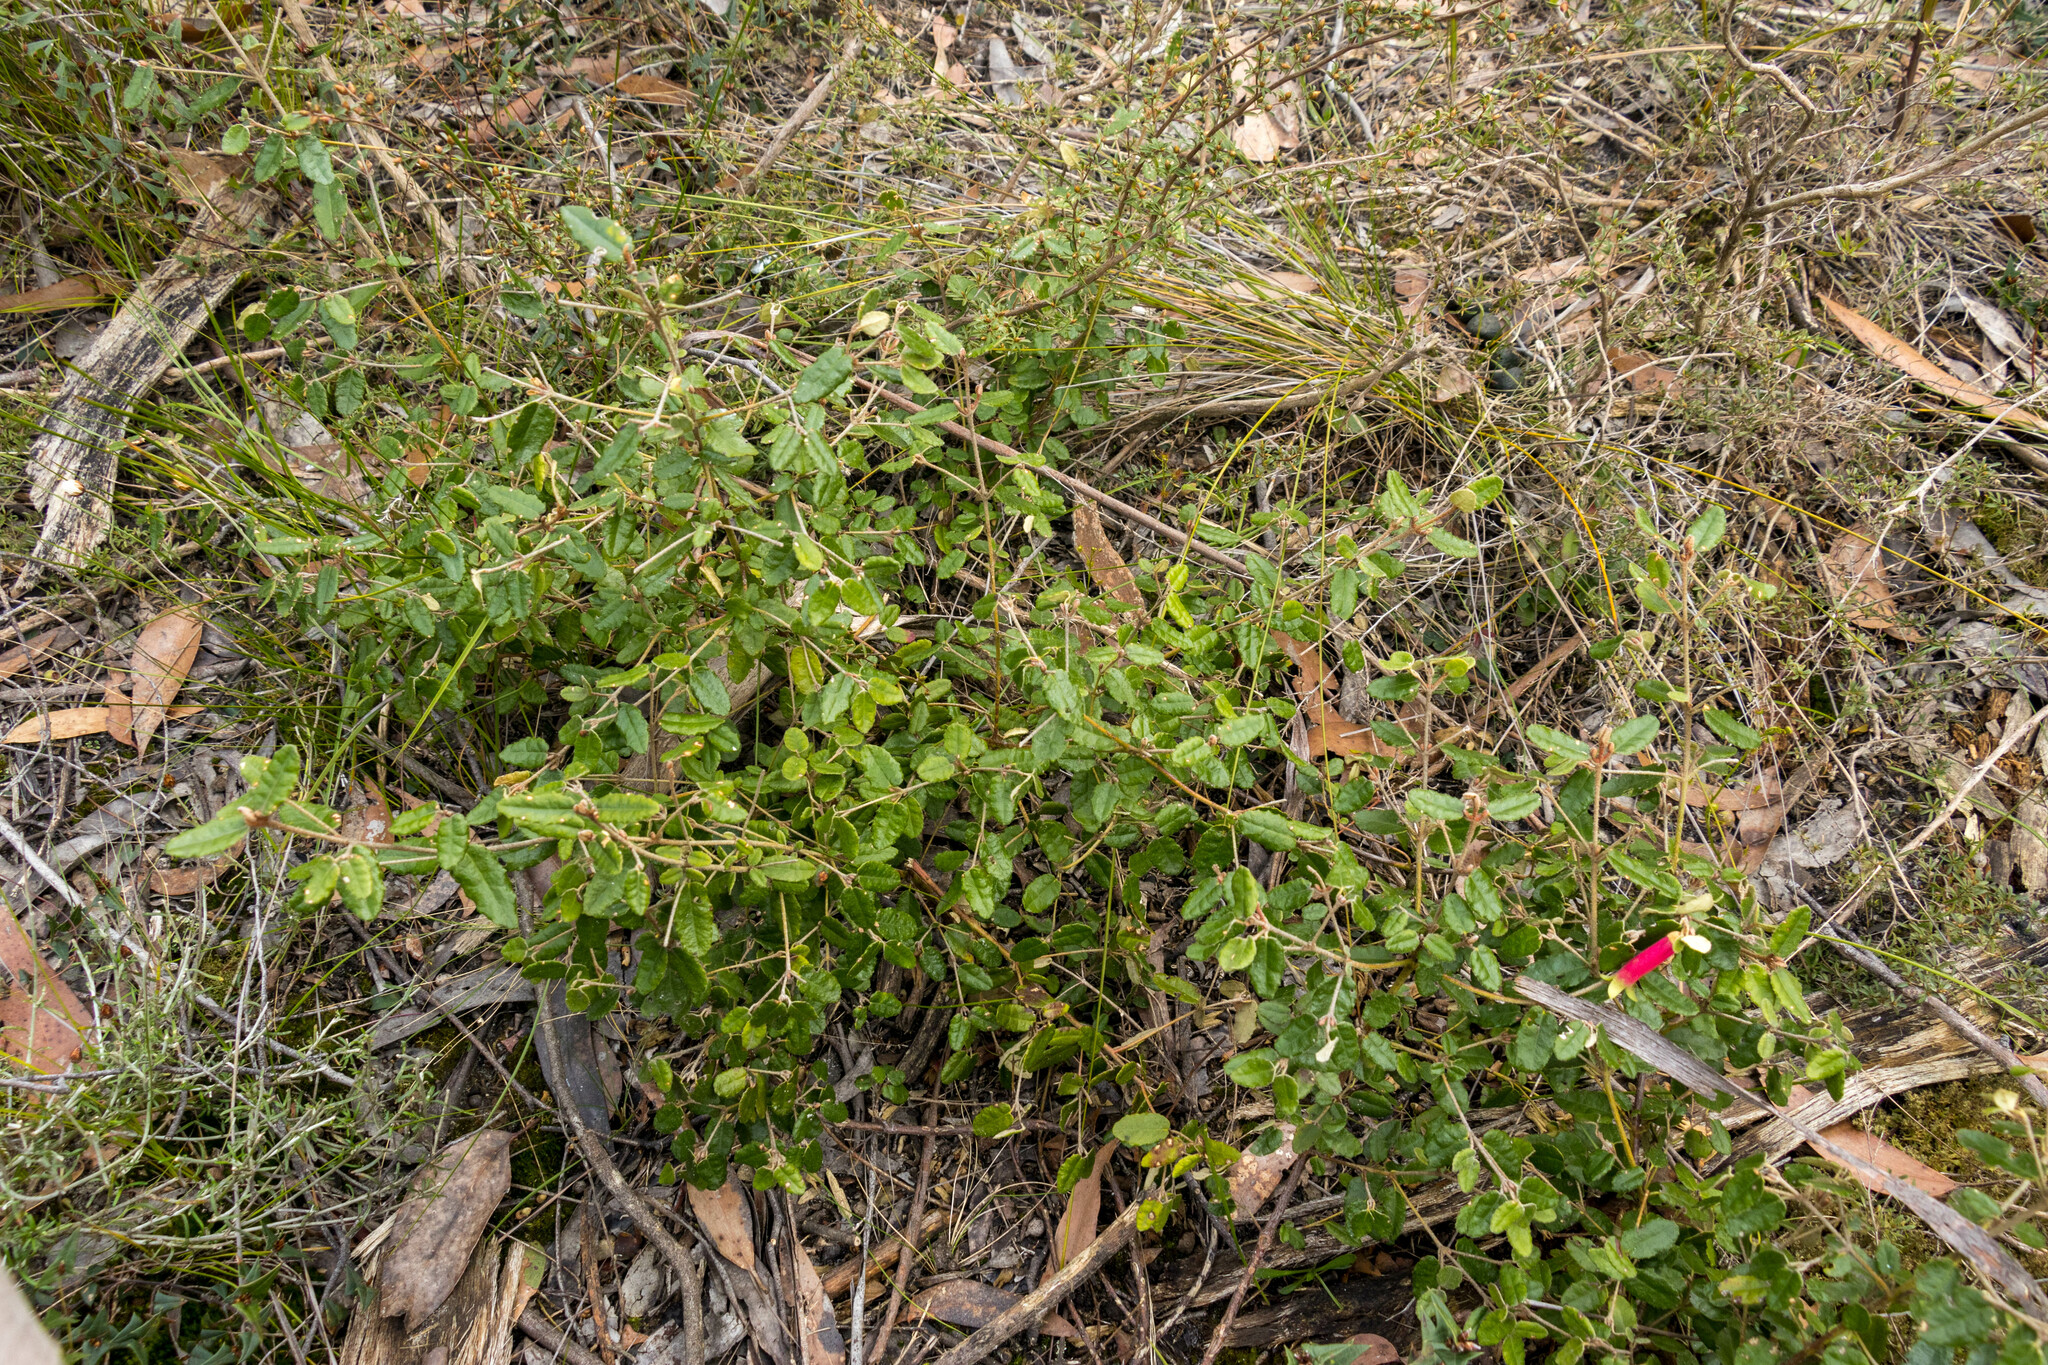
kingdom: Plantae
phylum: Tracheophyta
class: Magnoliopsida
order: Sapindales
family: Rutaceae
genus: Correa
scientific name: Correa reflexa
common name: Common correa
